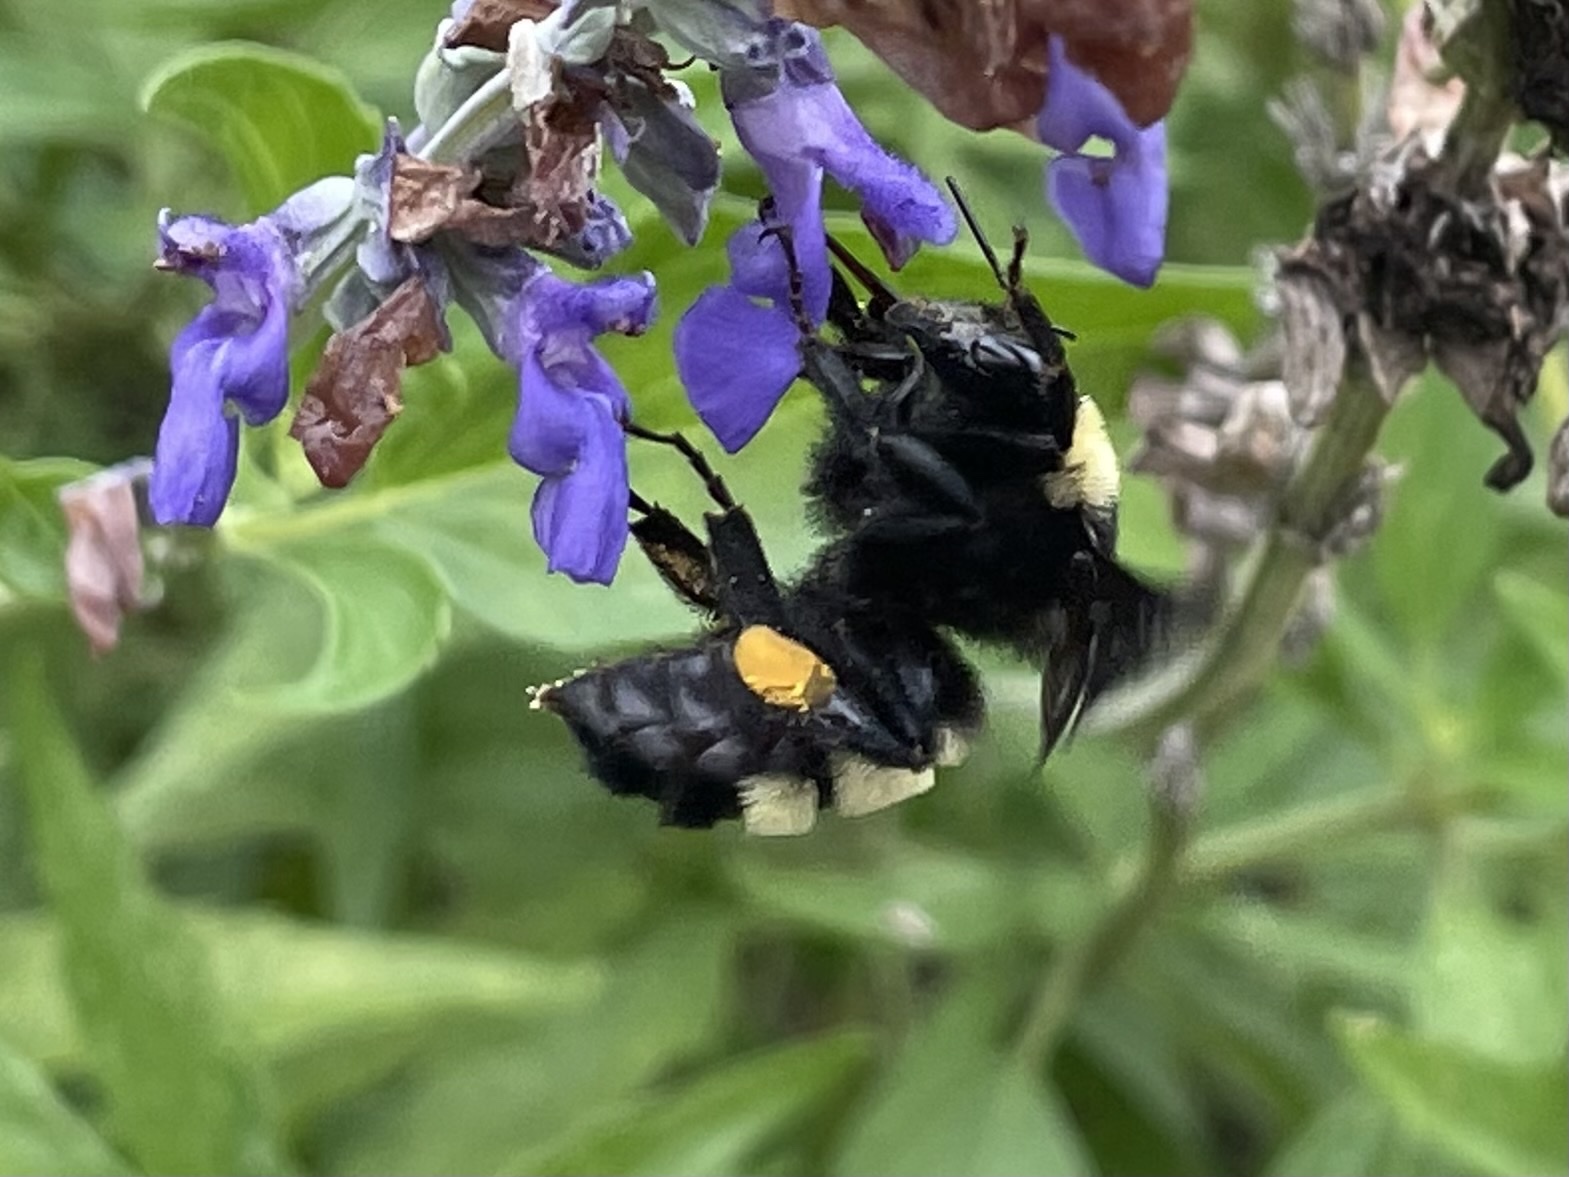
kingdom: Animalia
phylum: Arthropoda
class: Insecta
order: Hymenoptera
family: Apidae
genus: Bombus
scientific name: Bombus pensylvanicus
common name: Bumble bee
